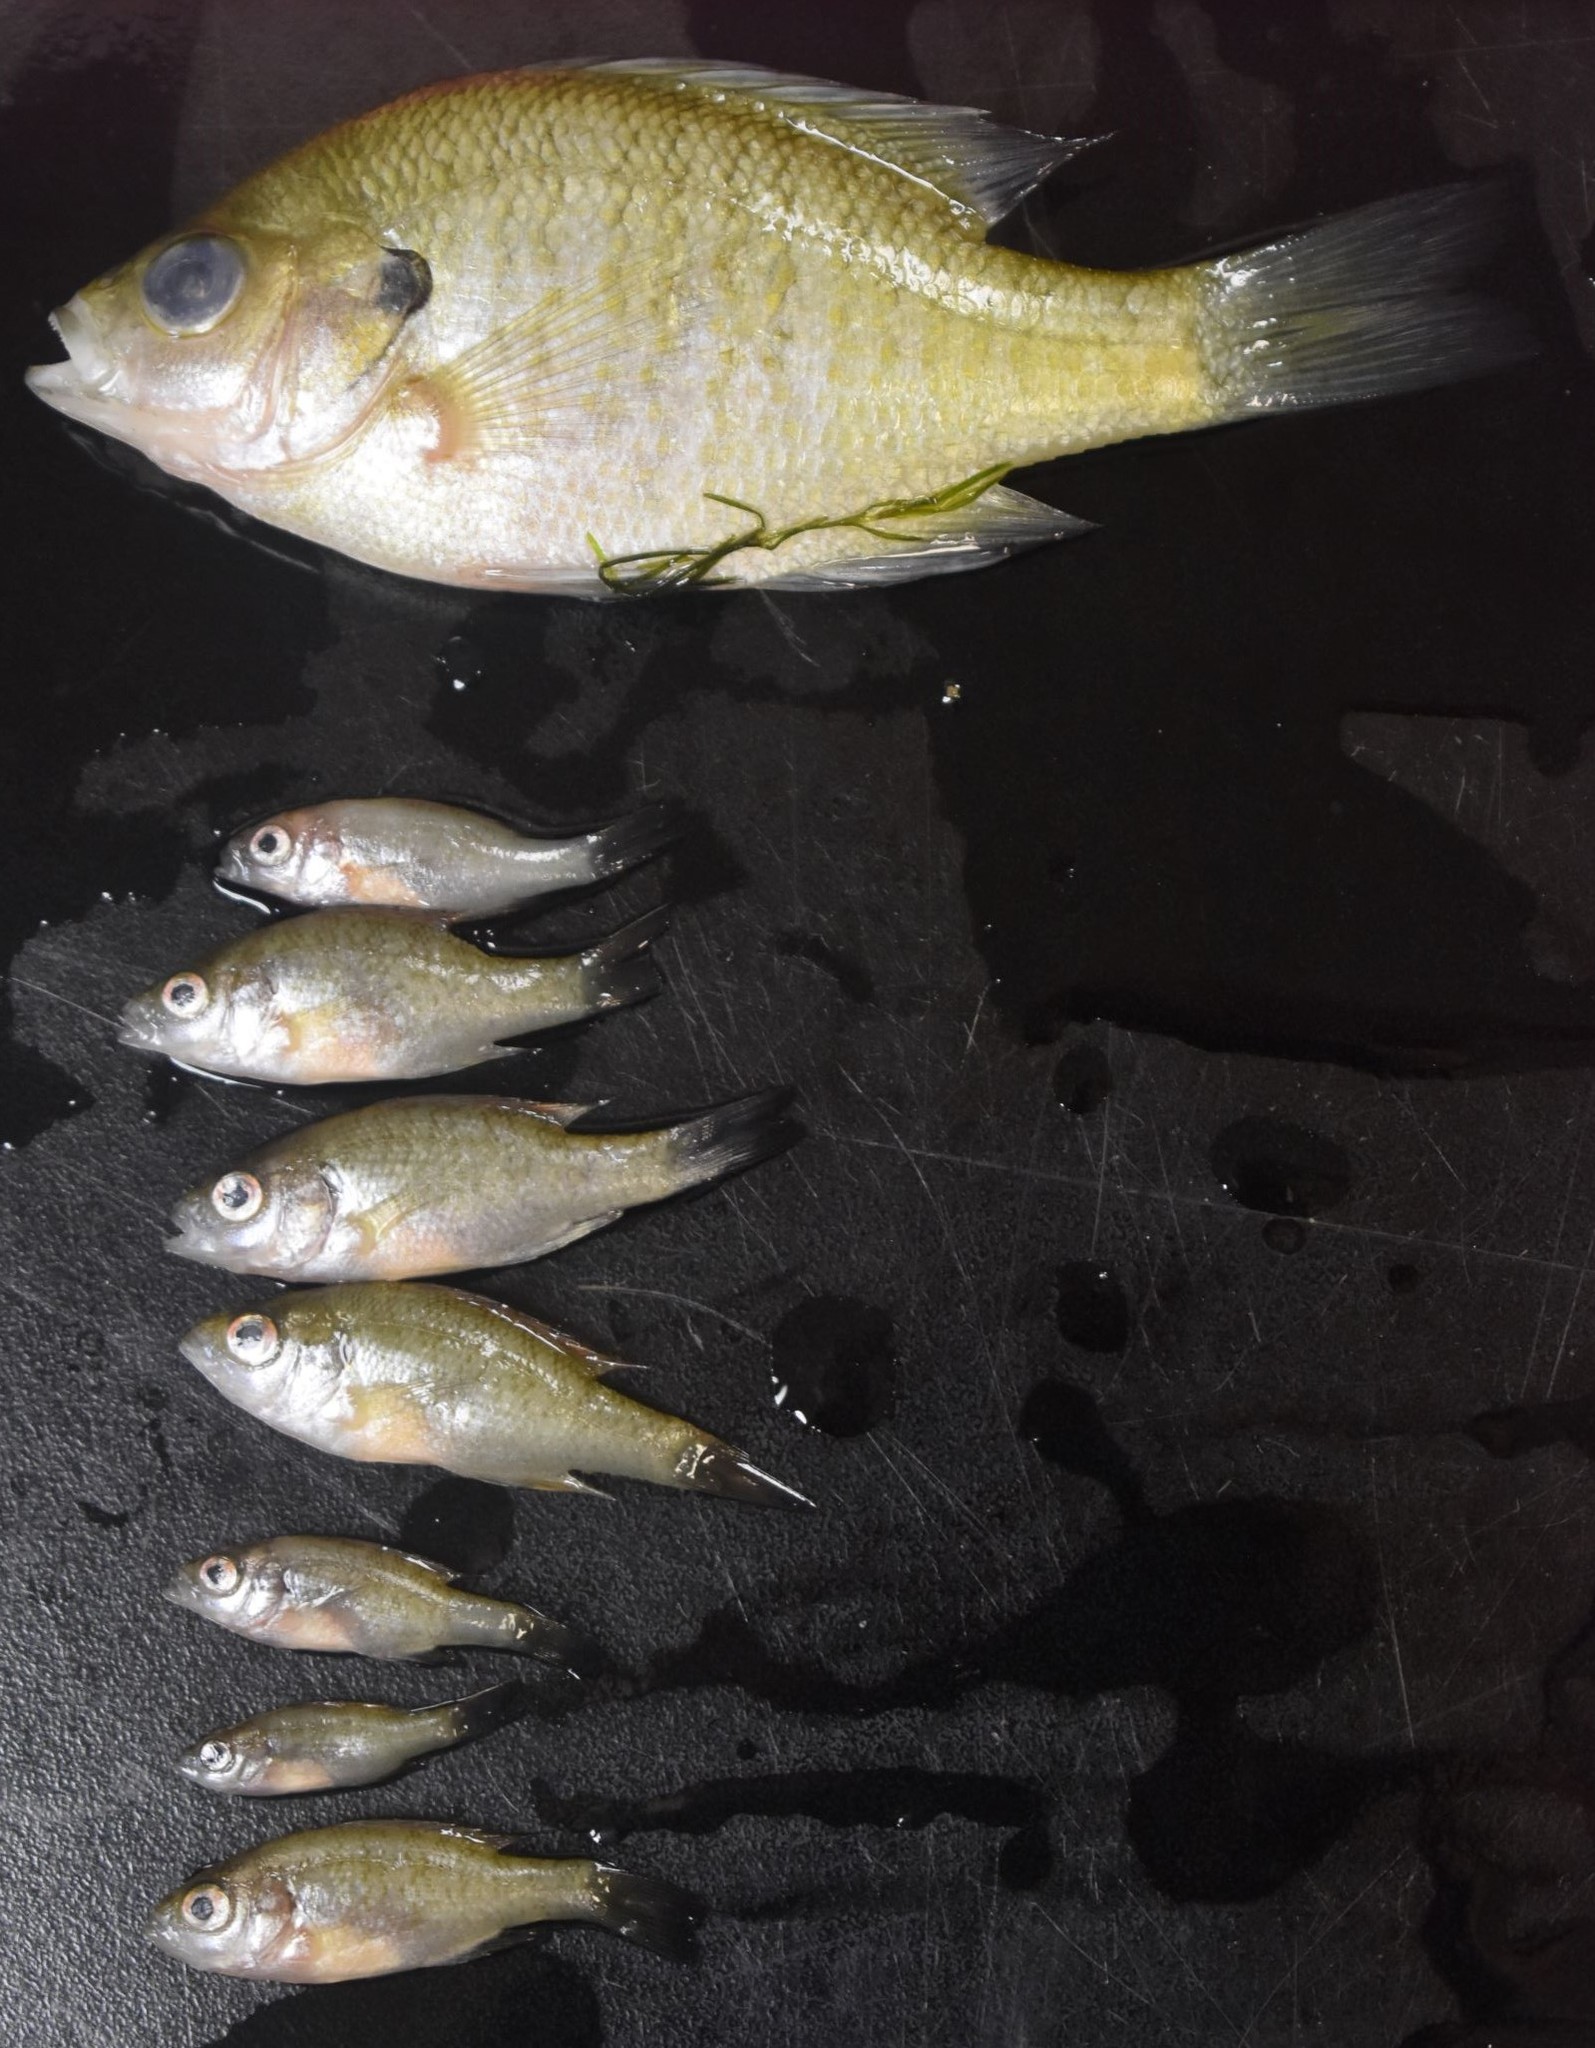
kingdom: Animalia
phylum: Chordata
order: Perciformes
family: Centrarchidae
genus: Lepomis
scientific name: Lepomis macrochirus
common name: Bluegill
